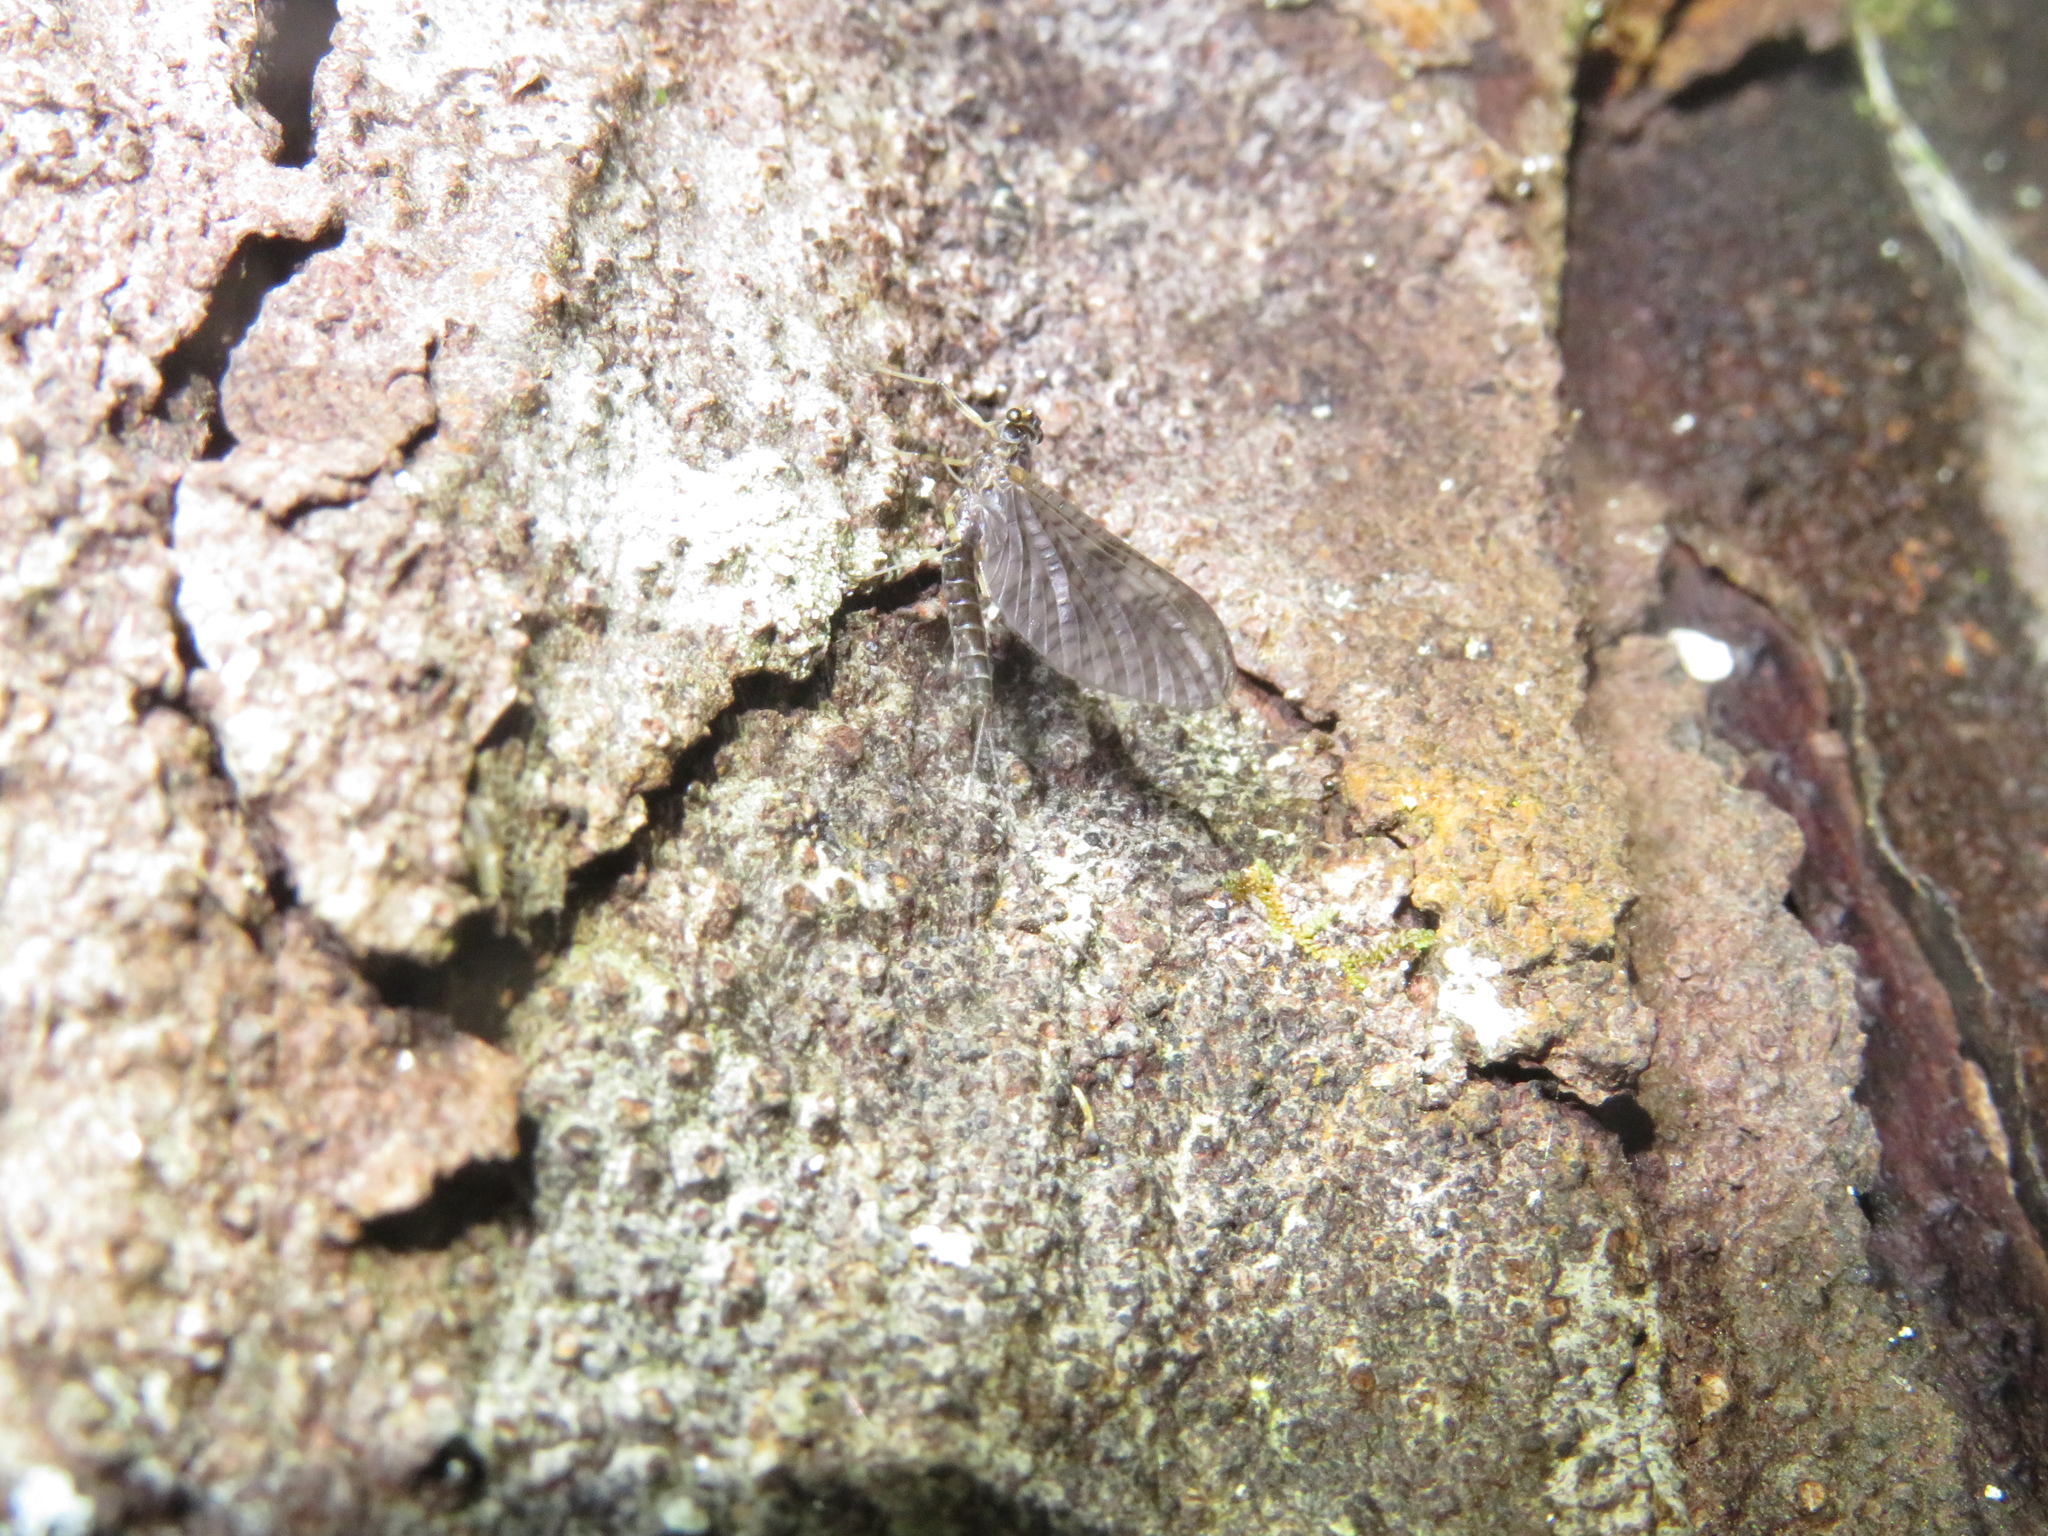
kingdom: Animalia
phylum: Arthropoda
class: Insecta
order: Ephemeroptera
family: Leptophlebiidae
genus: Neozephlebia
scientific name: Neozephlebia scita
